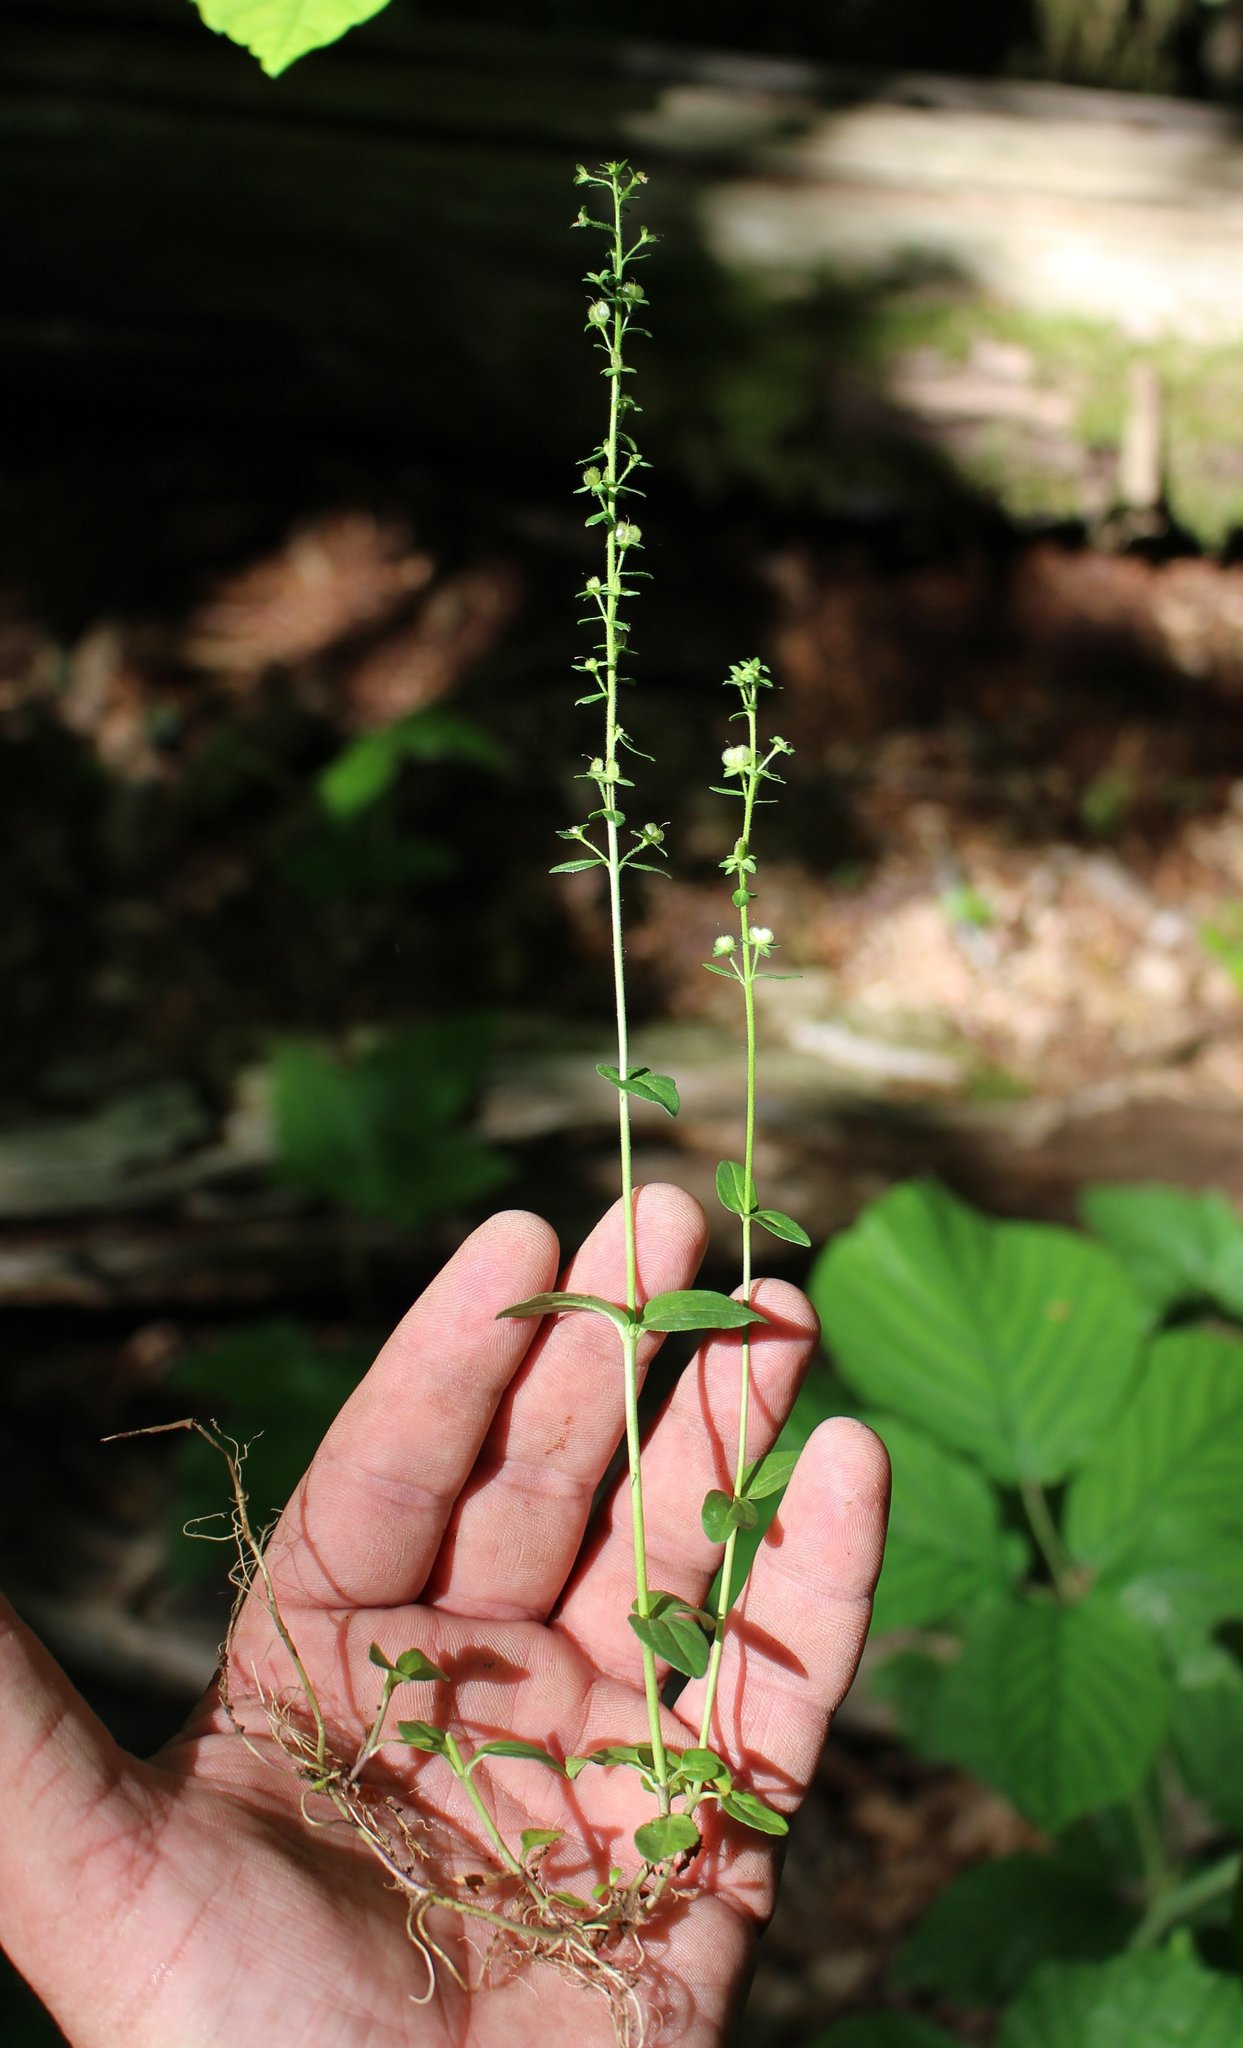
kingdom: Plantae
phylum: Tracheophyta
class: Magnoliopsida
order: Lamiales
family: Plantaginaceae
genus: Veronica
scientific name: Veronica serpyllifolia
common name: Thyme-leaved speedwell
